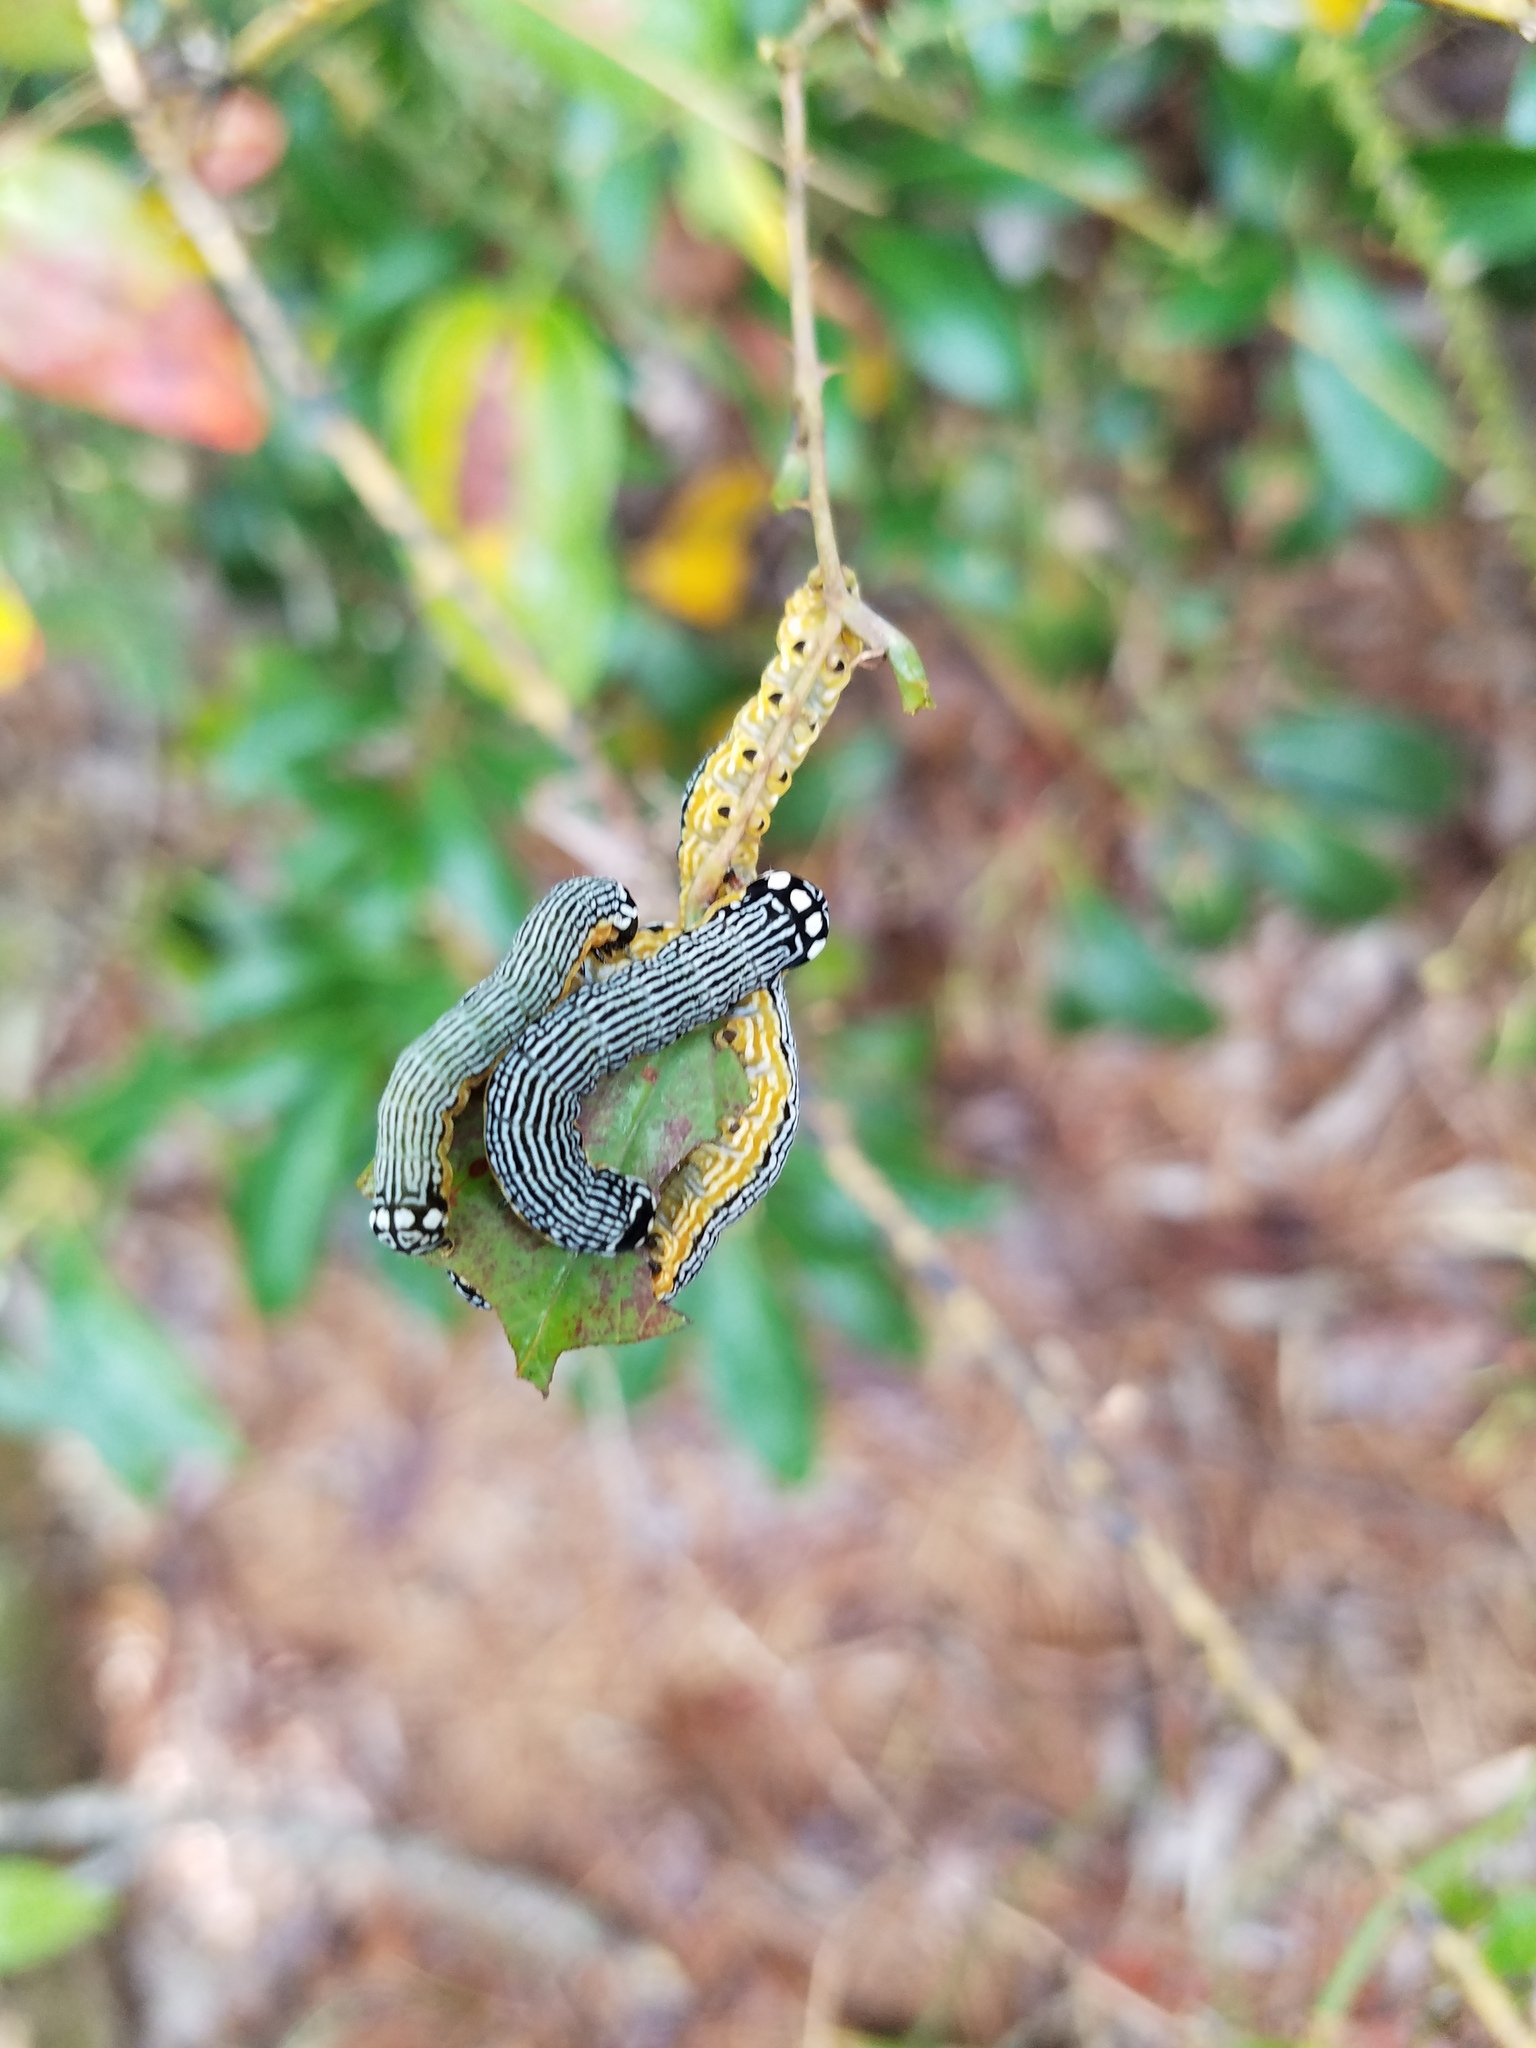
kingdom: Animalia
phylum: Arthropoda
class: Insecta
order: Lepidoptera
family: Noctuidae
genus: Phosphila
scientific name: Phosphila turbulenta
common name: Turbulent phosphila moth
